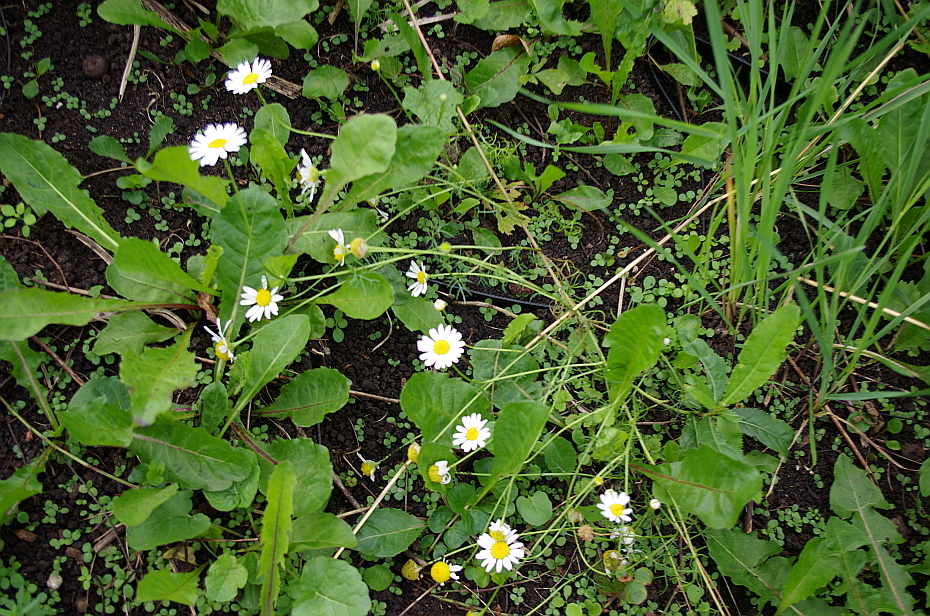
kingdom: Plantae
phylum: Tracheophyta
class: Magnoliopsida
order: Asterales
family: Asteraceae
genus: Tripleurospermum
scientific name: Tripleurospermum inodorum
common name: Scentless mayweed
